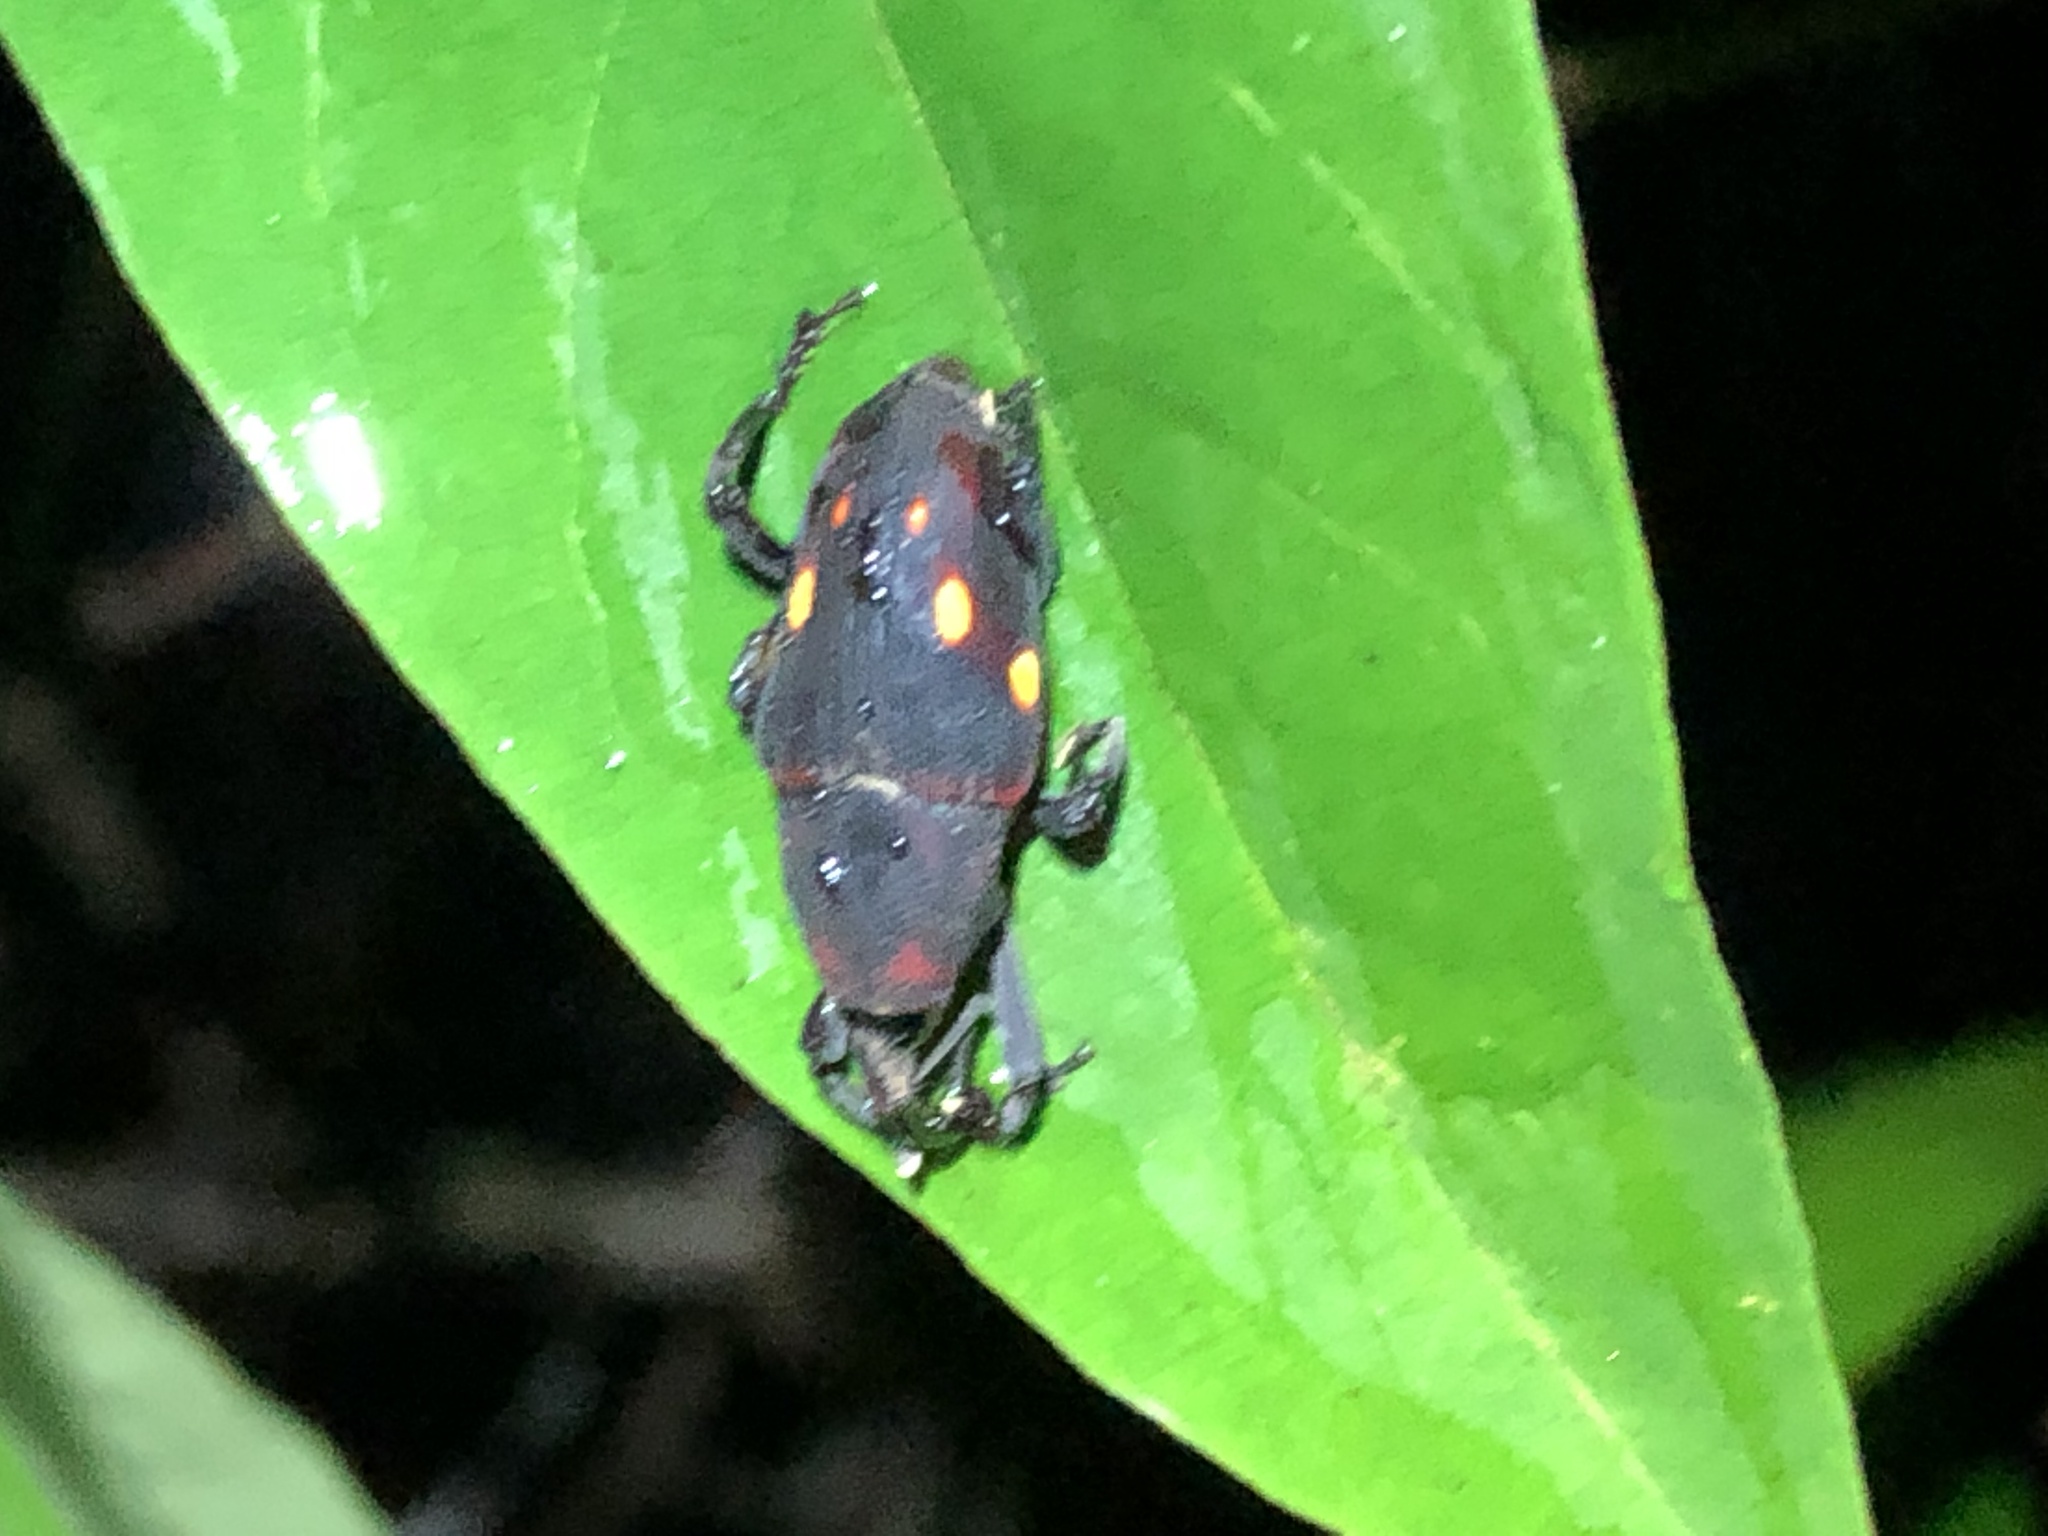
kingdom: Animalia
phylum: Arthropoda
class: Insecta
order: Coleoptera
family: Dryophthoridae
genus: Cactophagus
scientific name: Cactophagus
